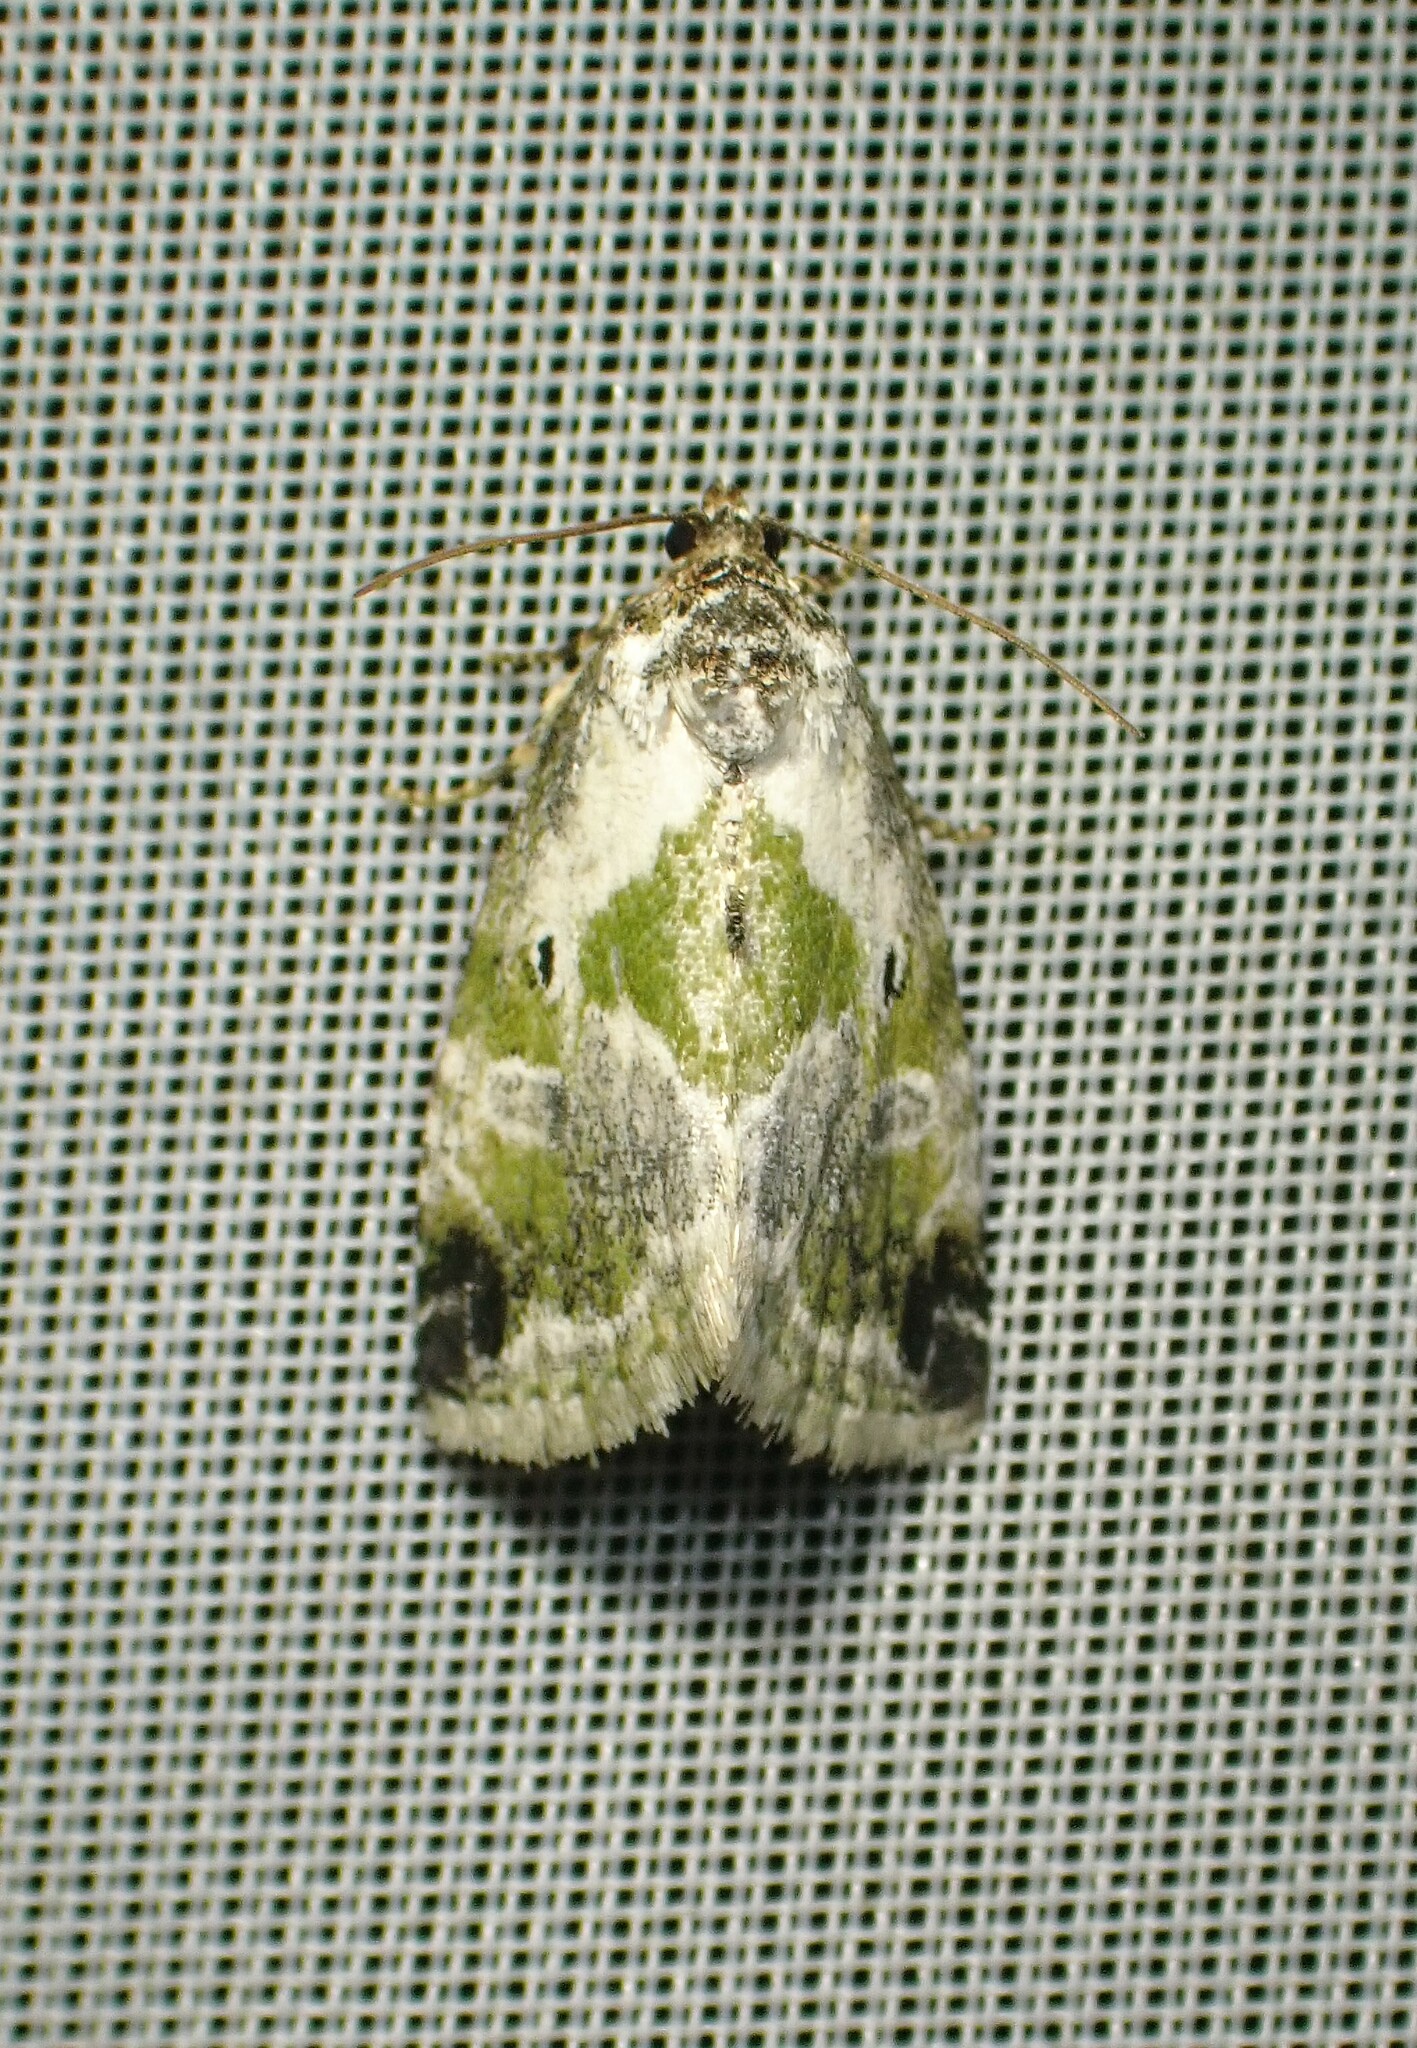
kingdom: Animalia
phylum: Arthropoda
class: Insecta
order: Lepidoptera
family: Noctuidae
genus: Maliattha
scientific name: Maliattha synochitis
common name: Black-dotted glyph
